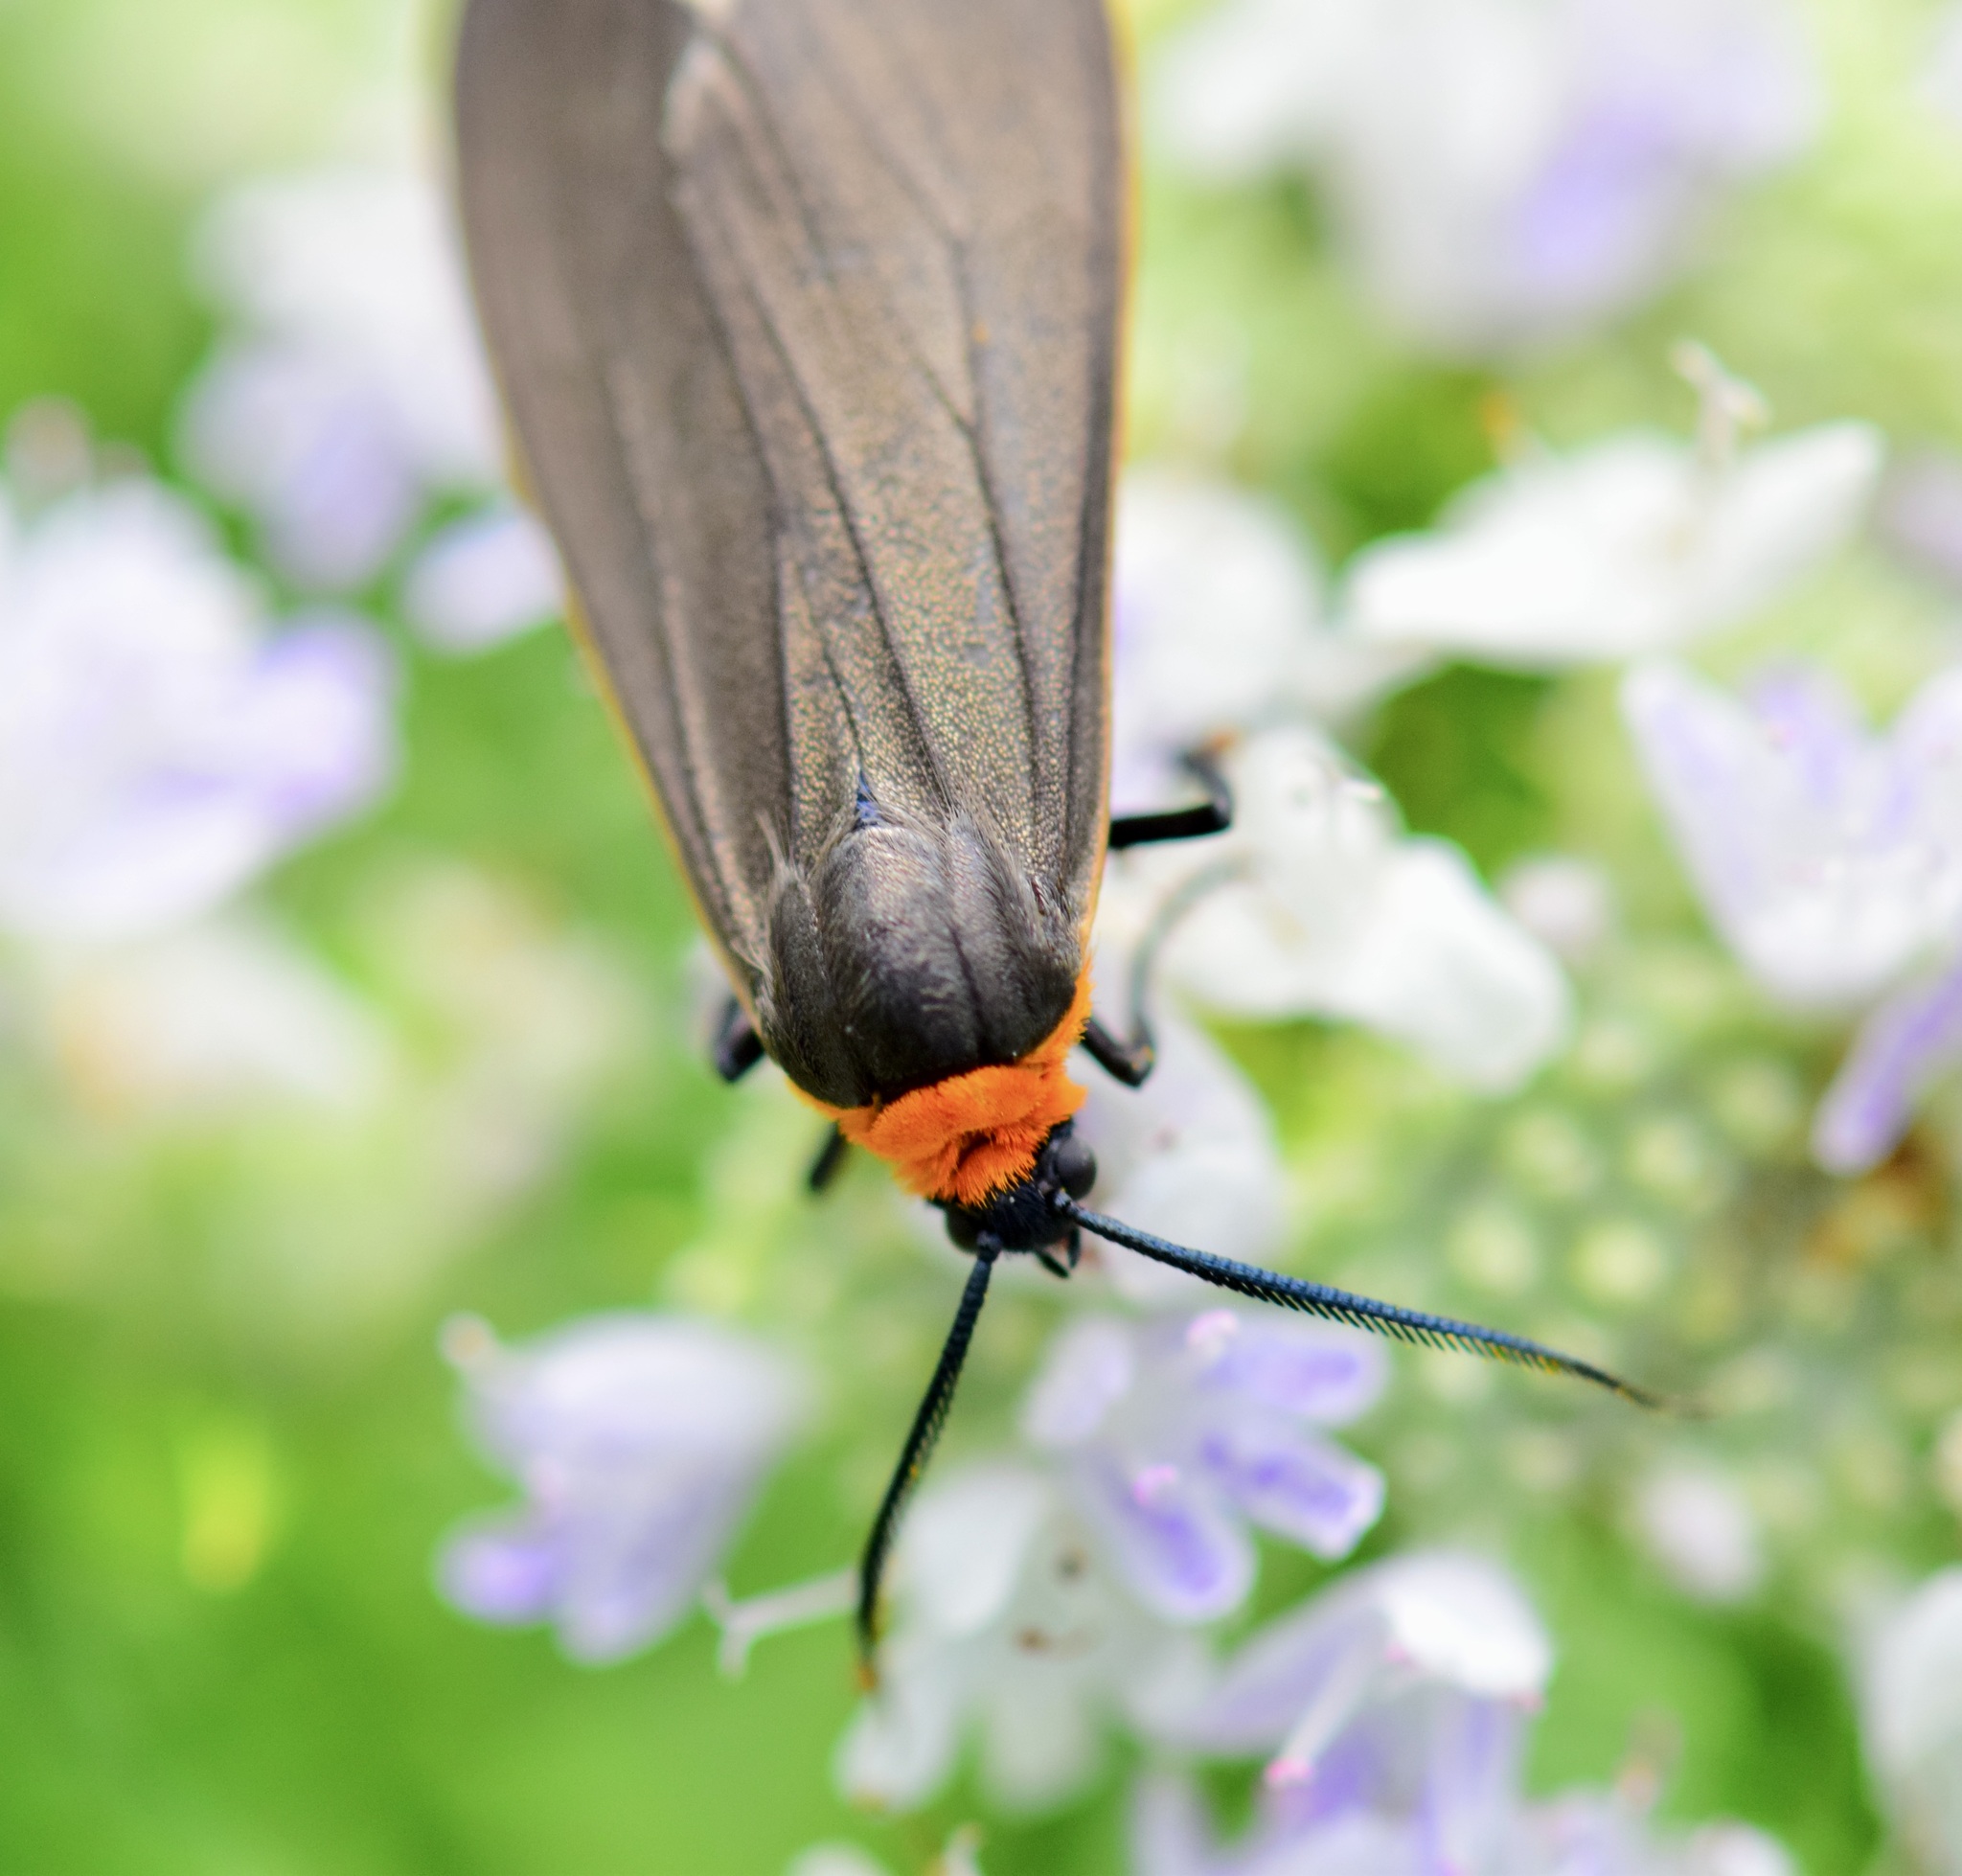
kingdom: Animalia
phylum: Arthropoda
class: Insecta
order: Lepidoptera
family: Erebidae
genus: Cisseps
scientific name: Cisseps fulvicollis
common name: Yellow-collared scape moth
